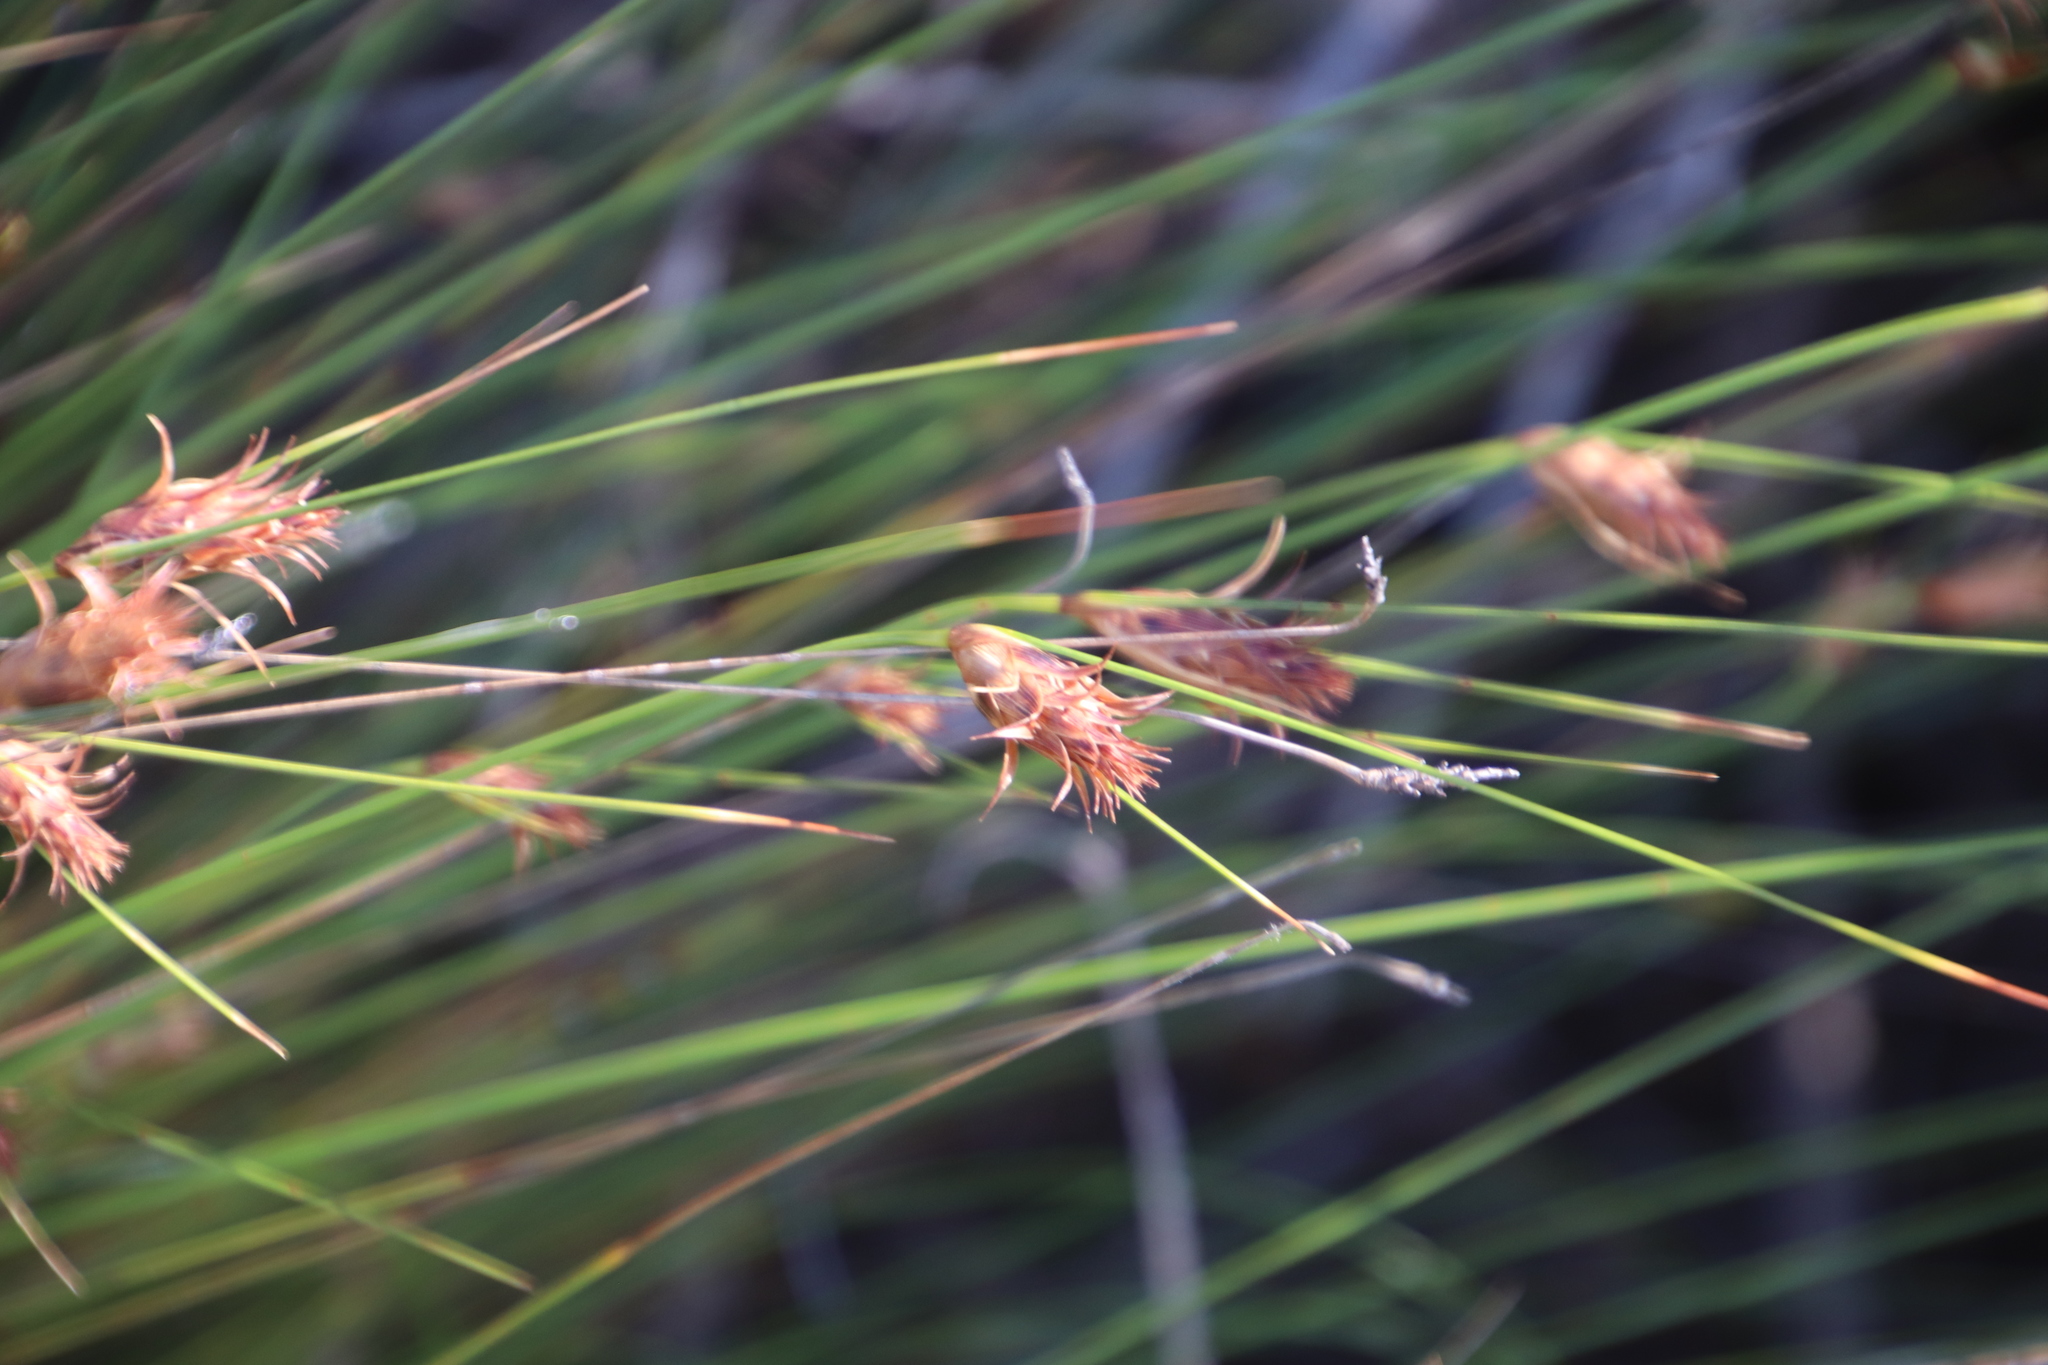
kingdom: Plantae
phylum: Tracheophyta
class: Liliopsida
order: Poales
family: Cyperaceae
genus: Ficinia
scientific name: Ficinia nigrescens
